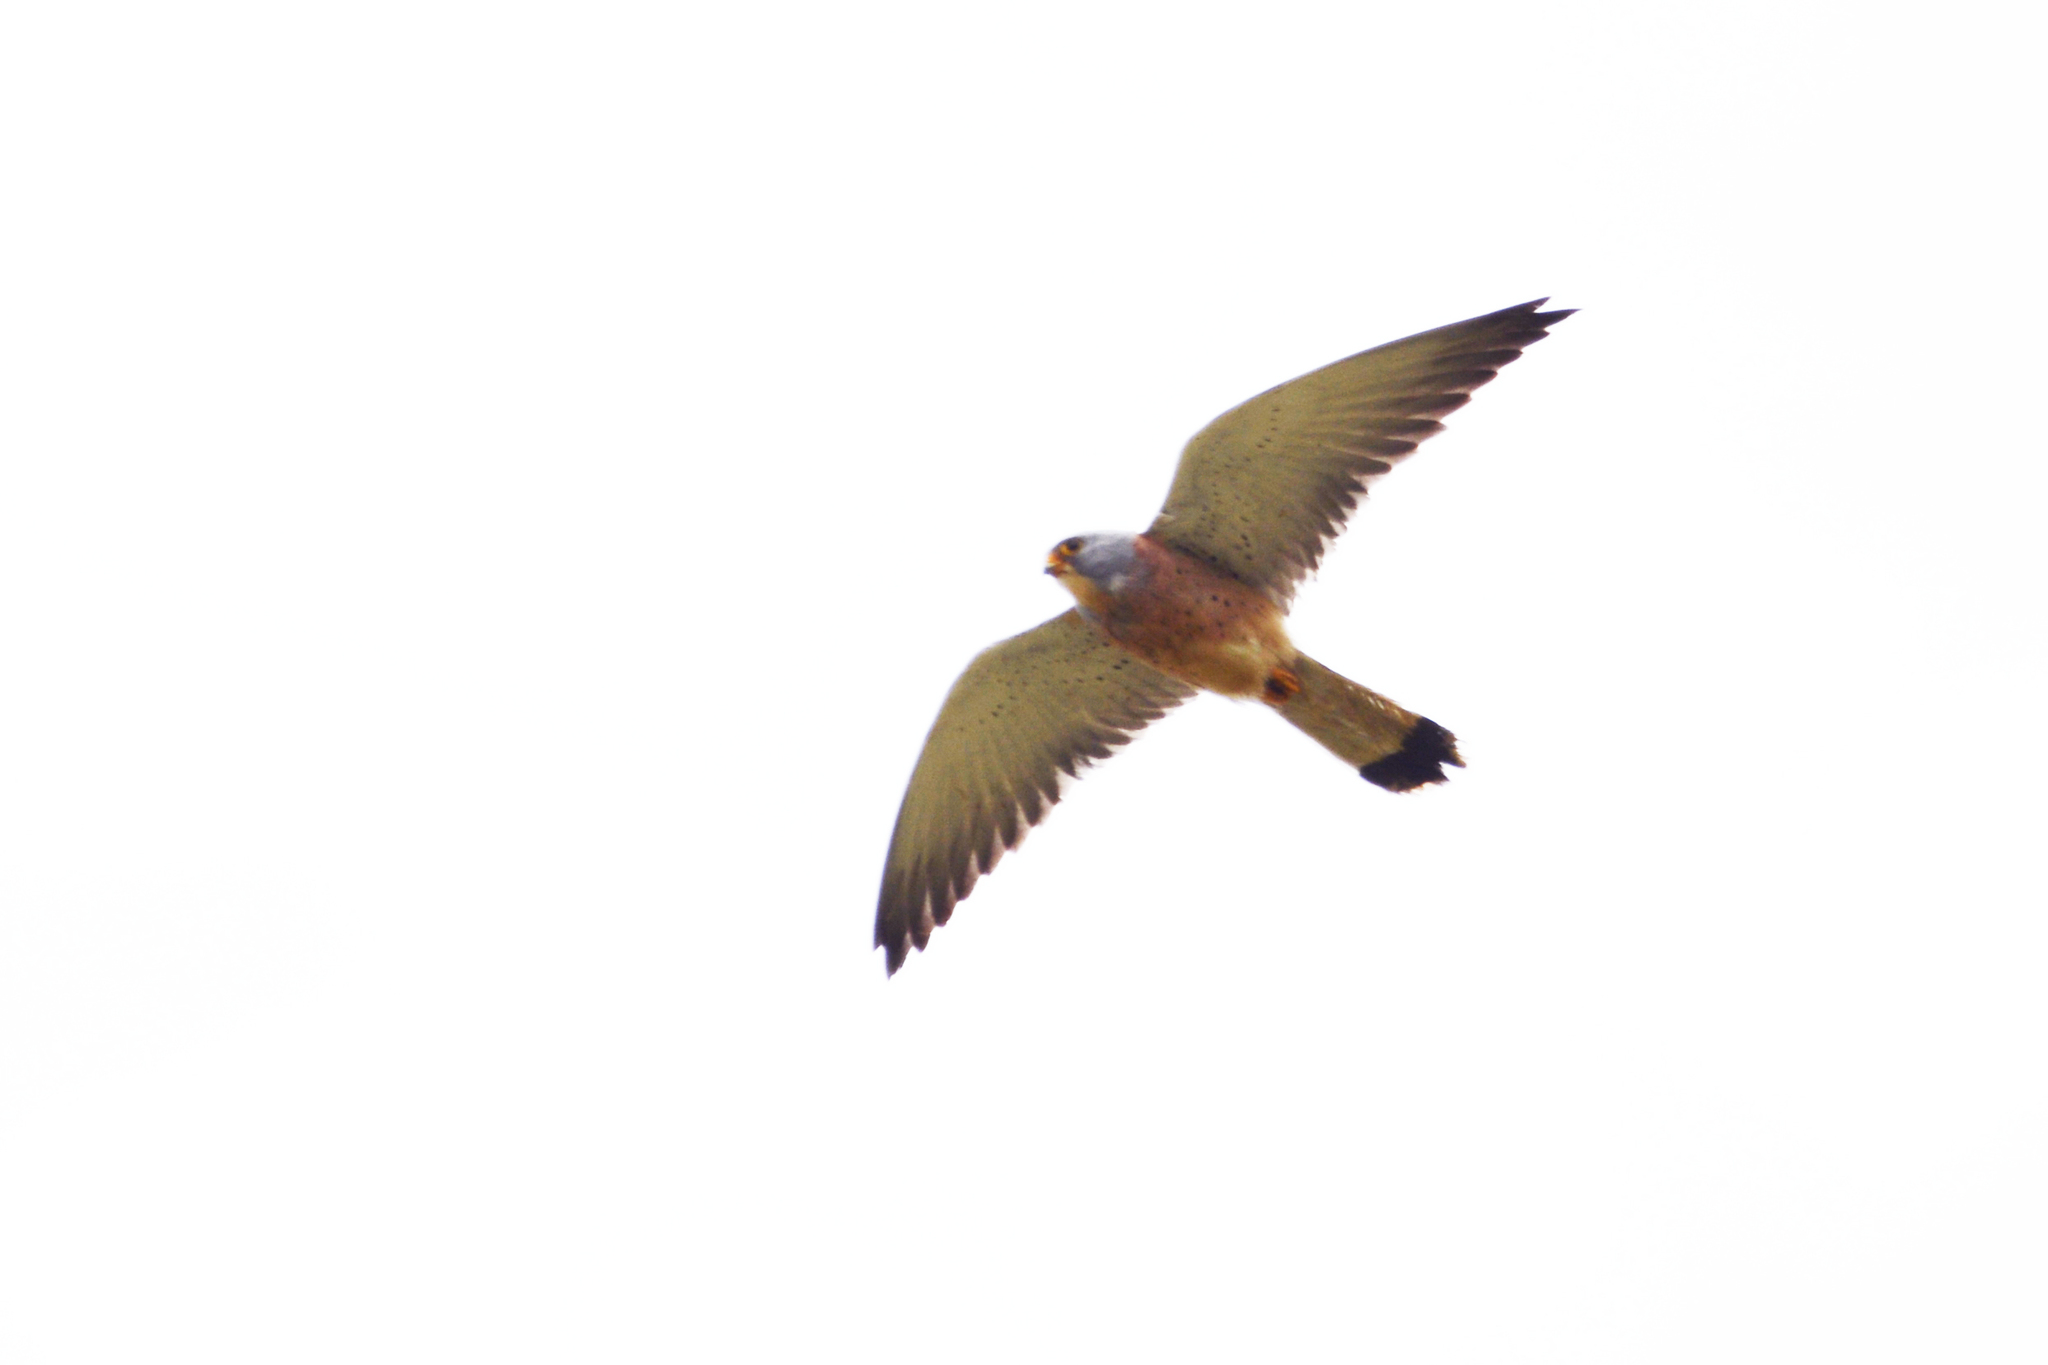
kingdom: Animalia
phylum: Chordata
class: Aves
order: Falconiformes
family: Falconidae
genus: Falco
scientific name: Falco naumanni
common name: Lesser kestrel
